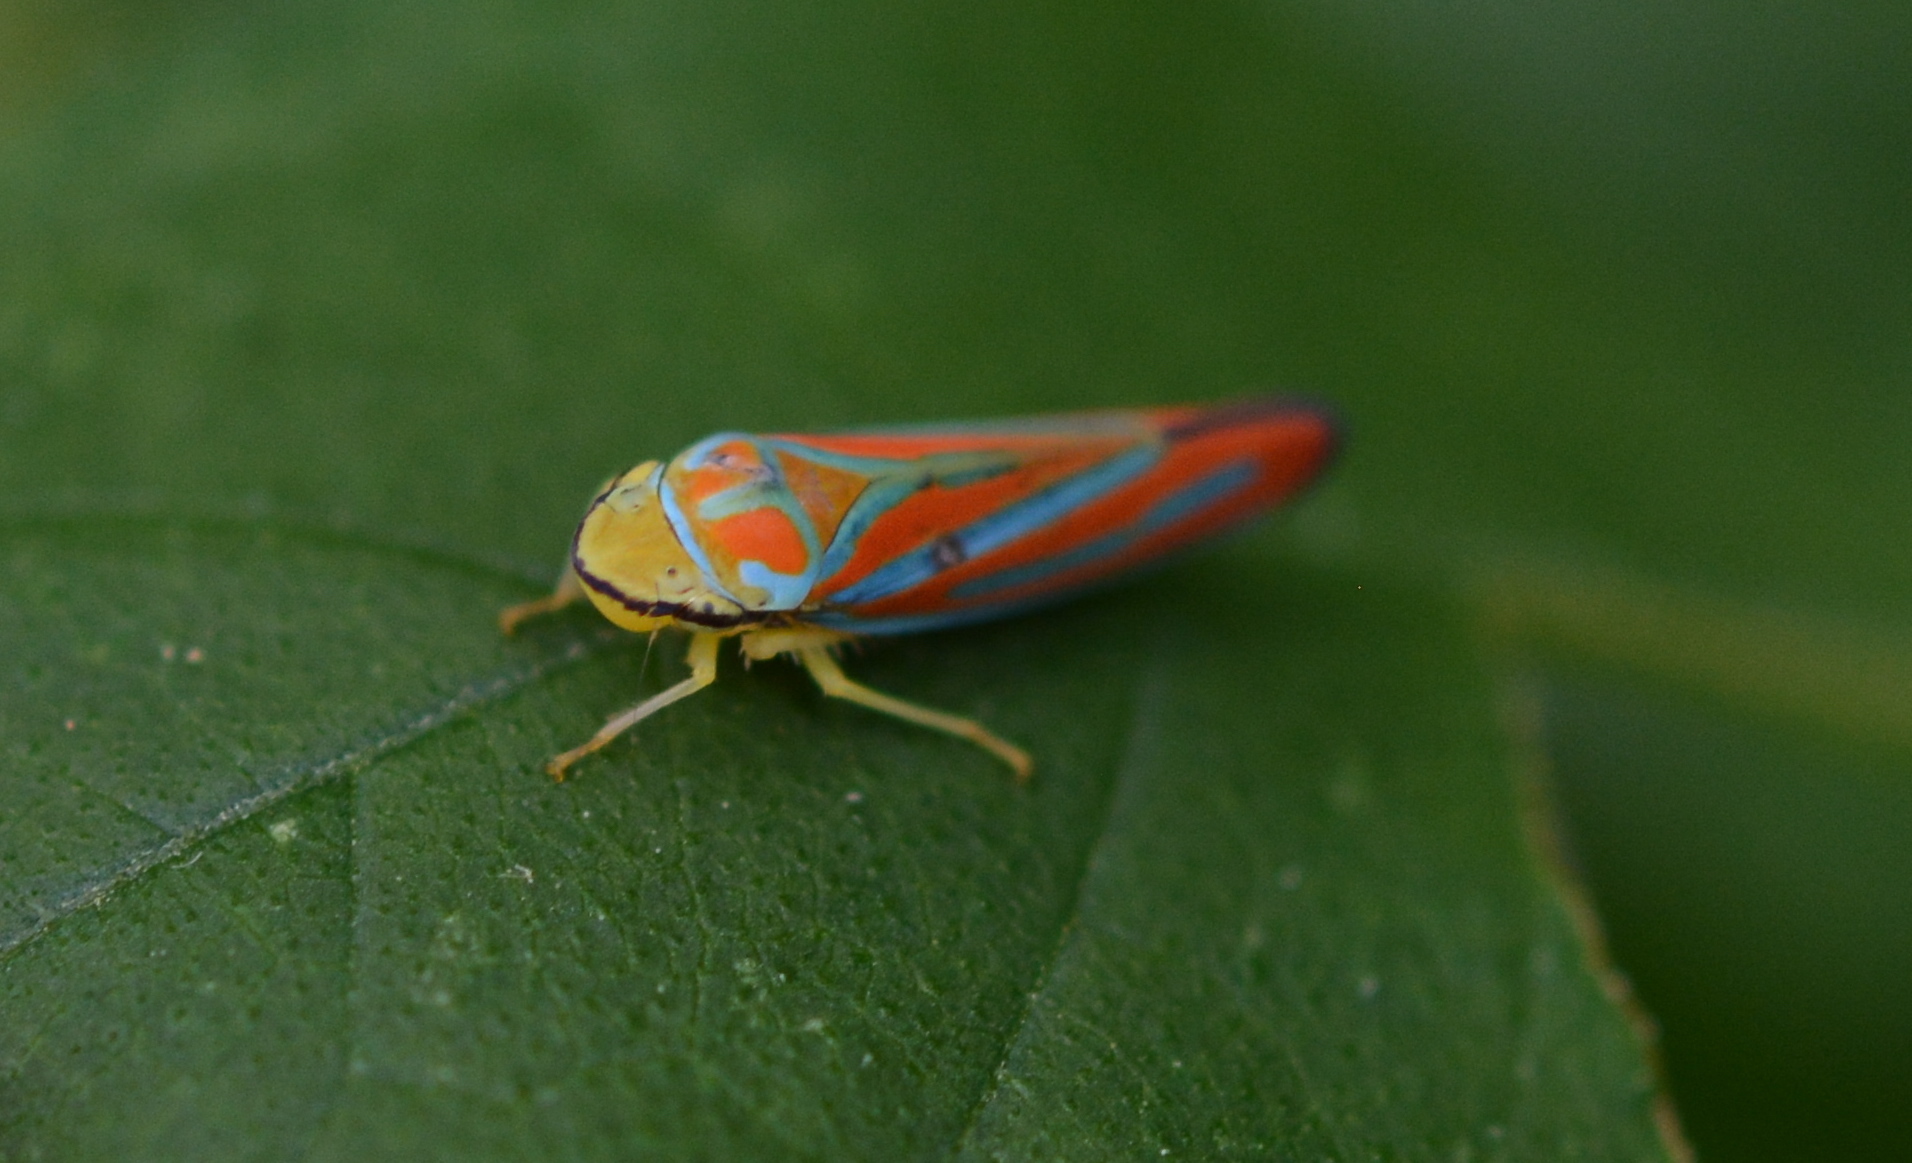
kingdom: Animalia
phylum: Arthropoda
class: Insecta
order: Hemiptera
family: Cicadellidae
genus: Graphocephala
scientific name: Graphocephala coccinea
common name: Candy-striped leafhopper
